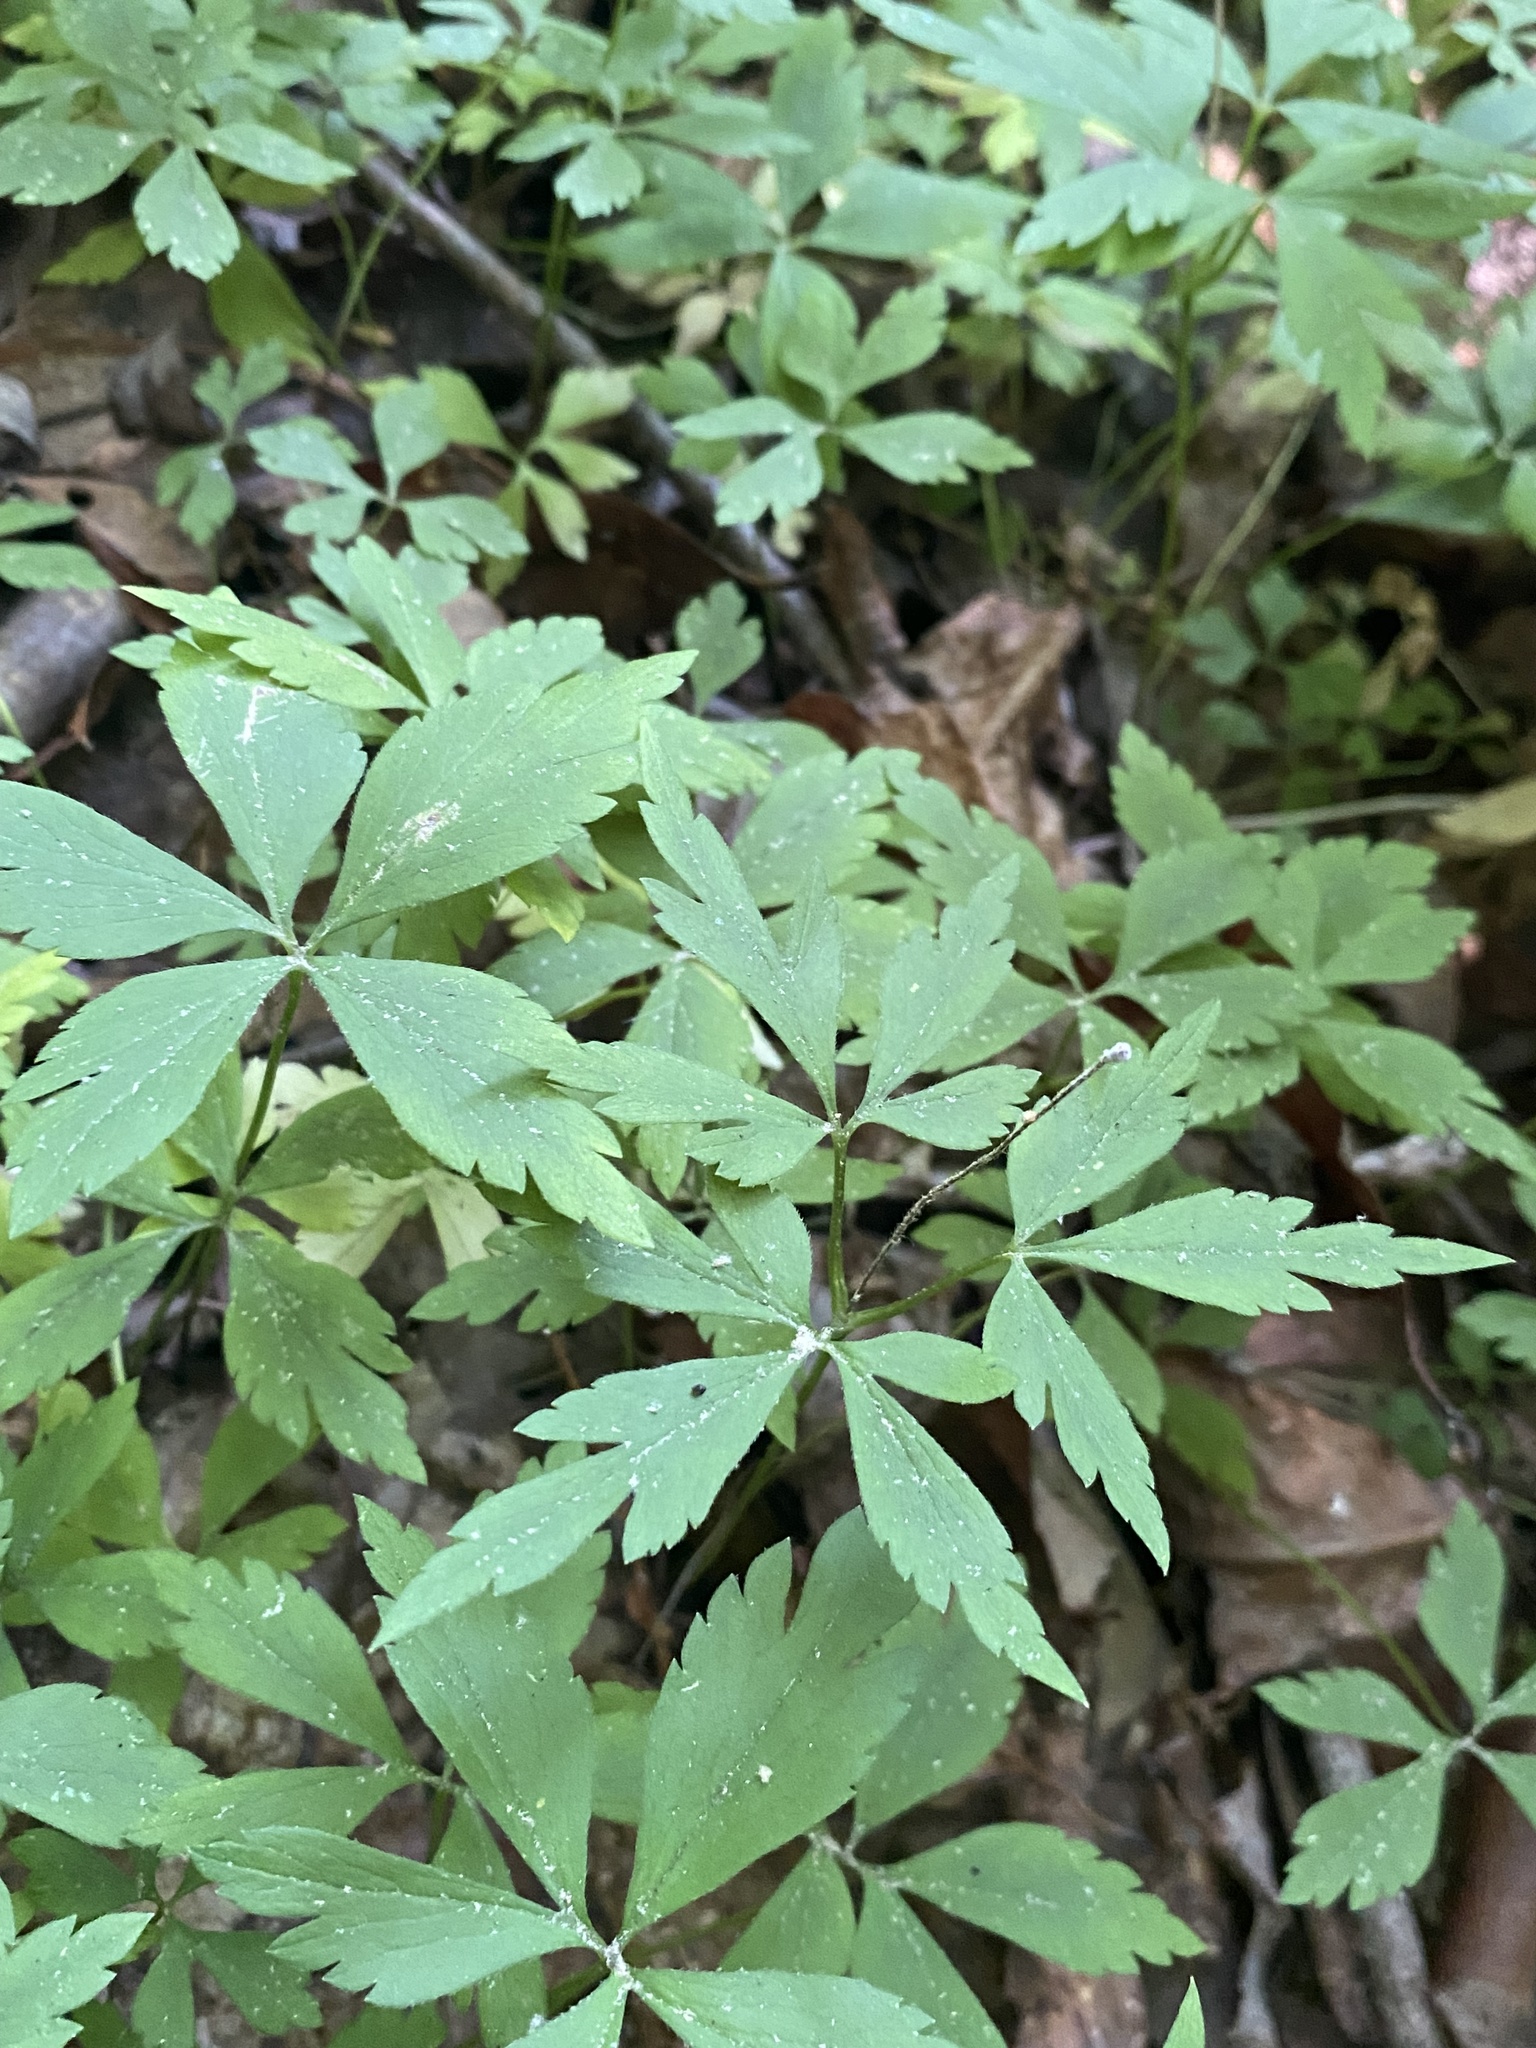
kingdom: Plantae
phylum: Tracheophyta
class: Magnoliopsida
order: Ranunculales
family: Ranunculaceae
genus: Anemone
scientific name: Anemone quinquefolia
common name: Wood anemone
